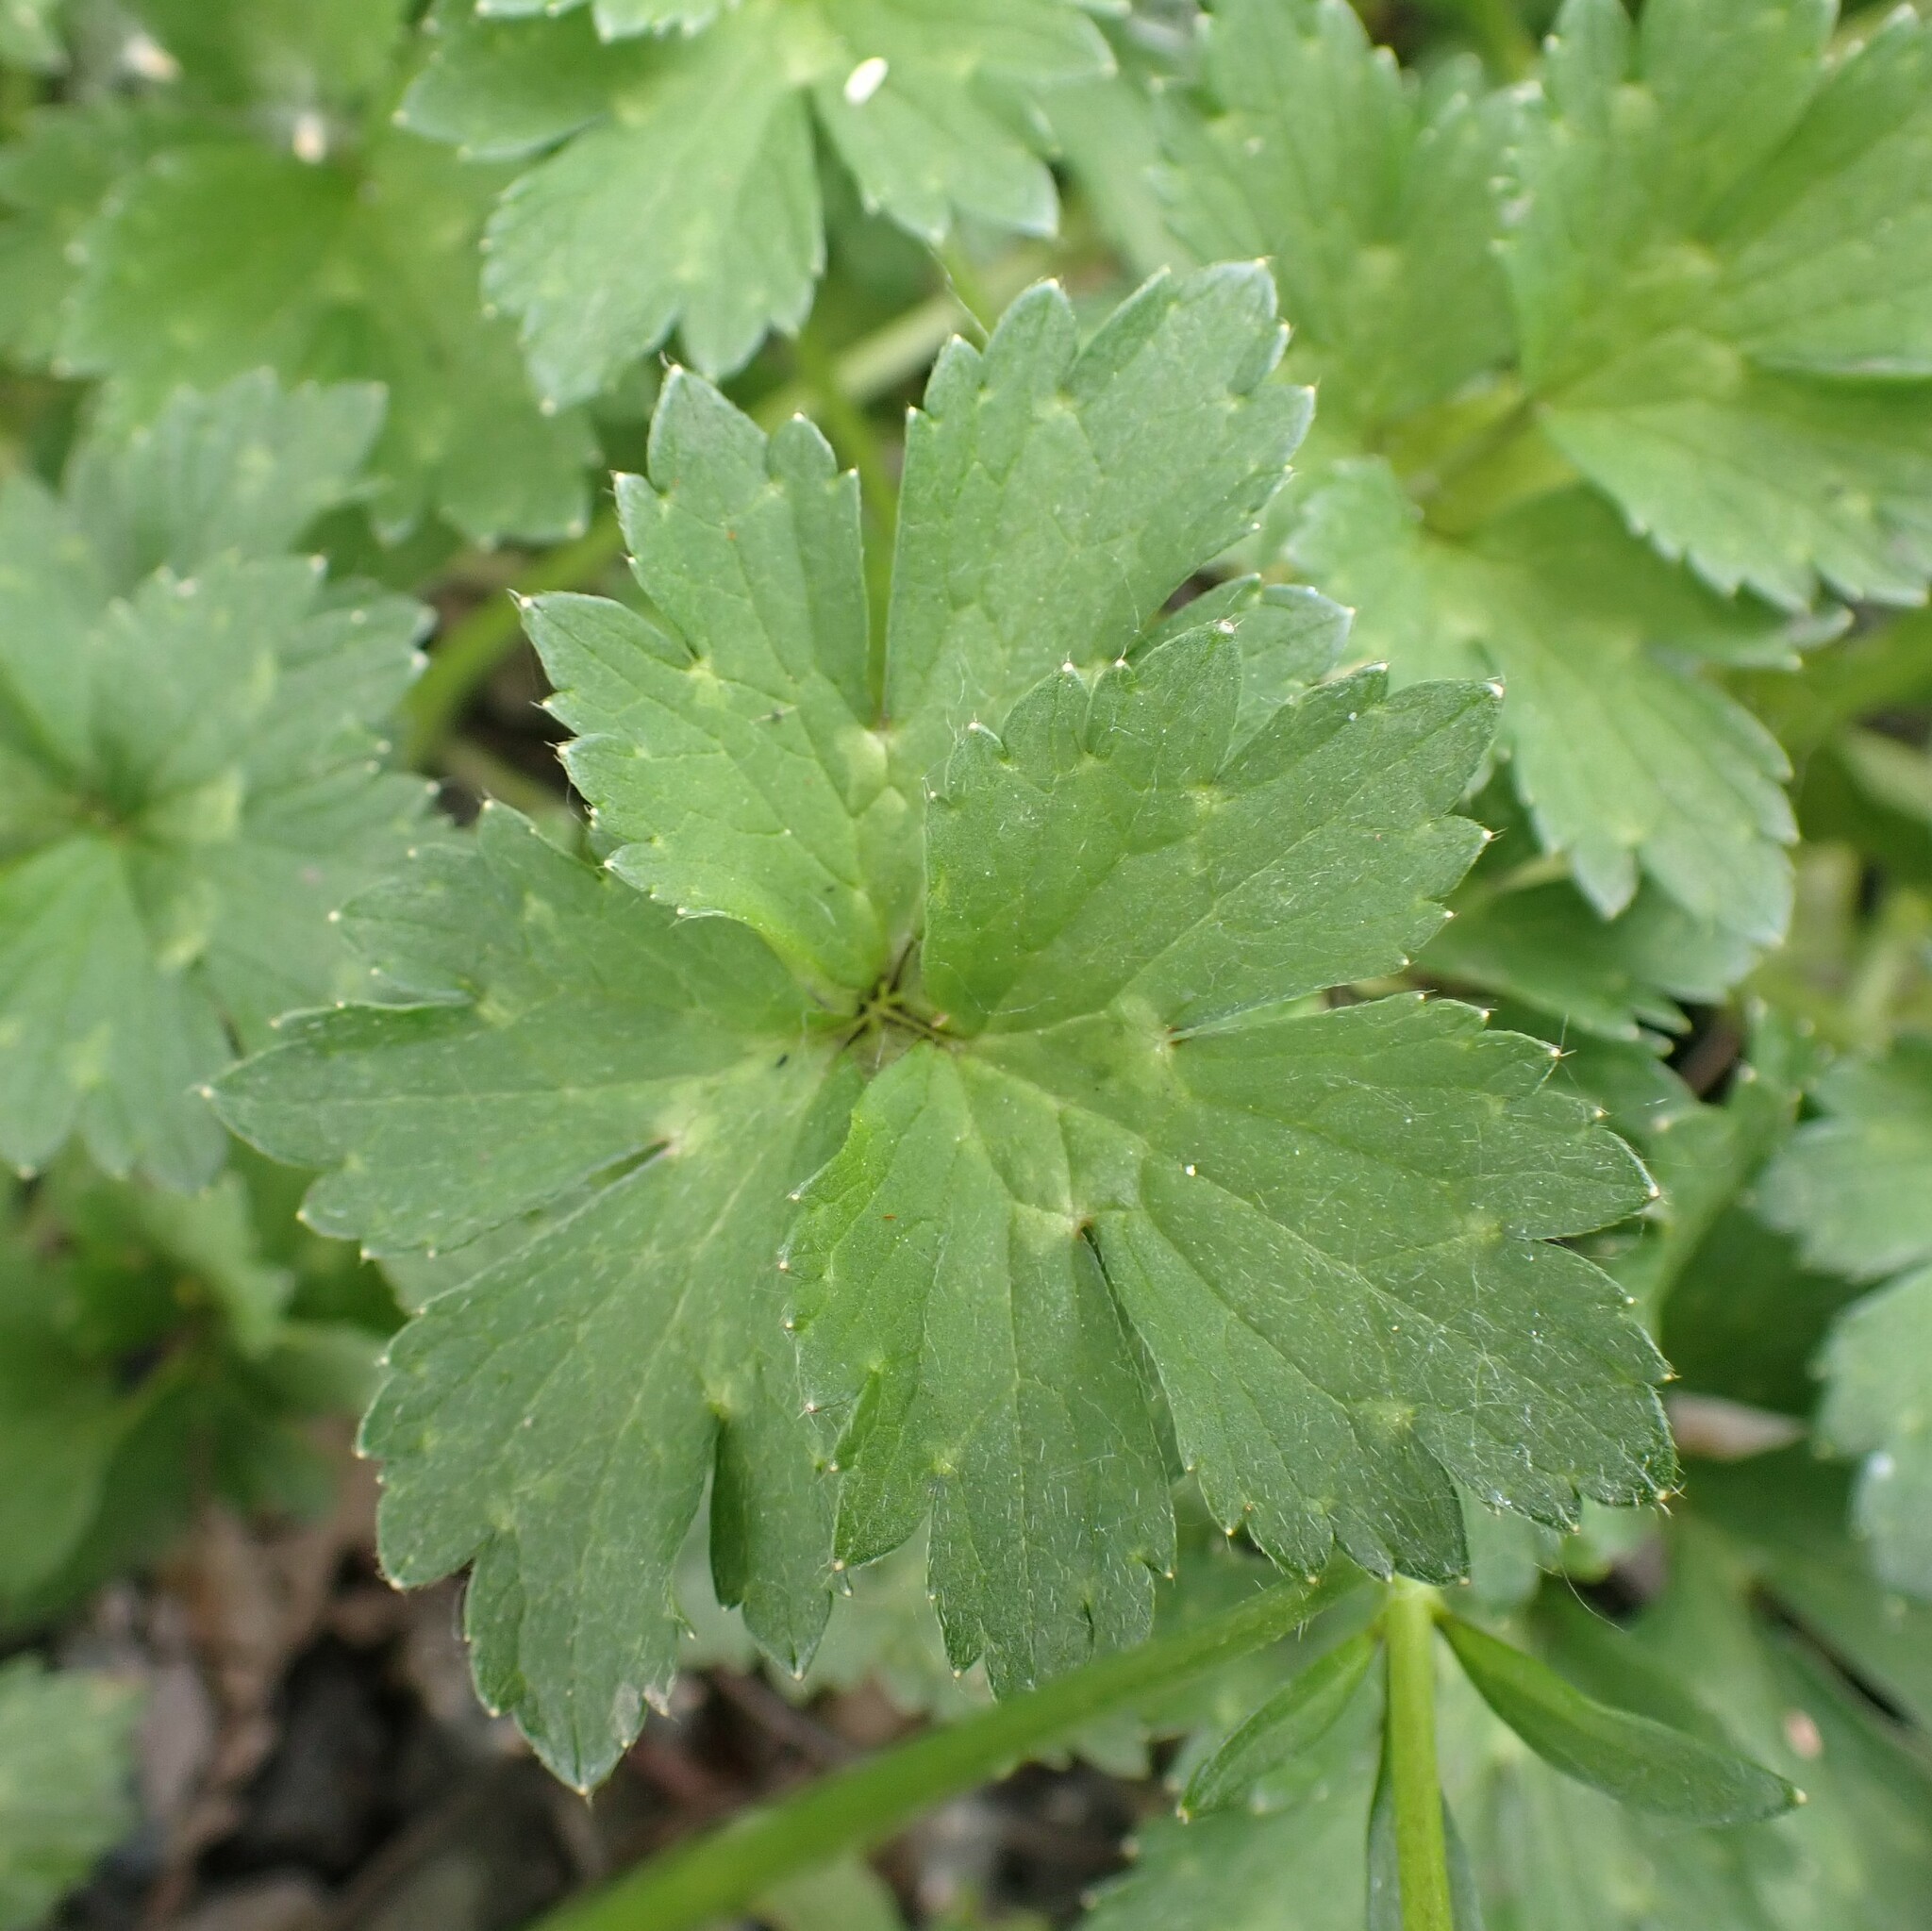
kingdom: Plantae
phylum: Tracheophyta
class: Magnoliopsida
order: Ranunculales
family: Ranunculaceae
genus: Ranunculus
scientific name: Ranunculus repens
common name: Creeping buttercup
